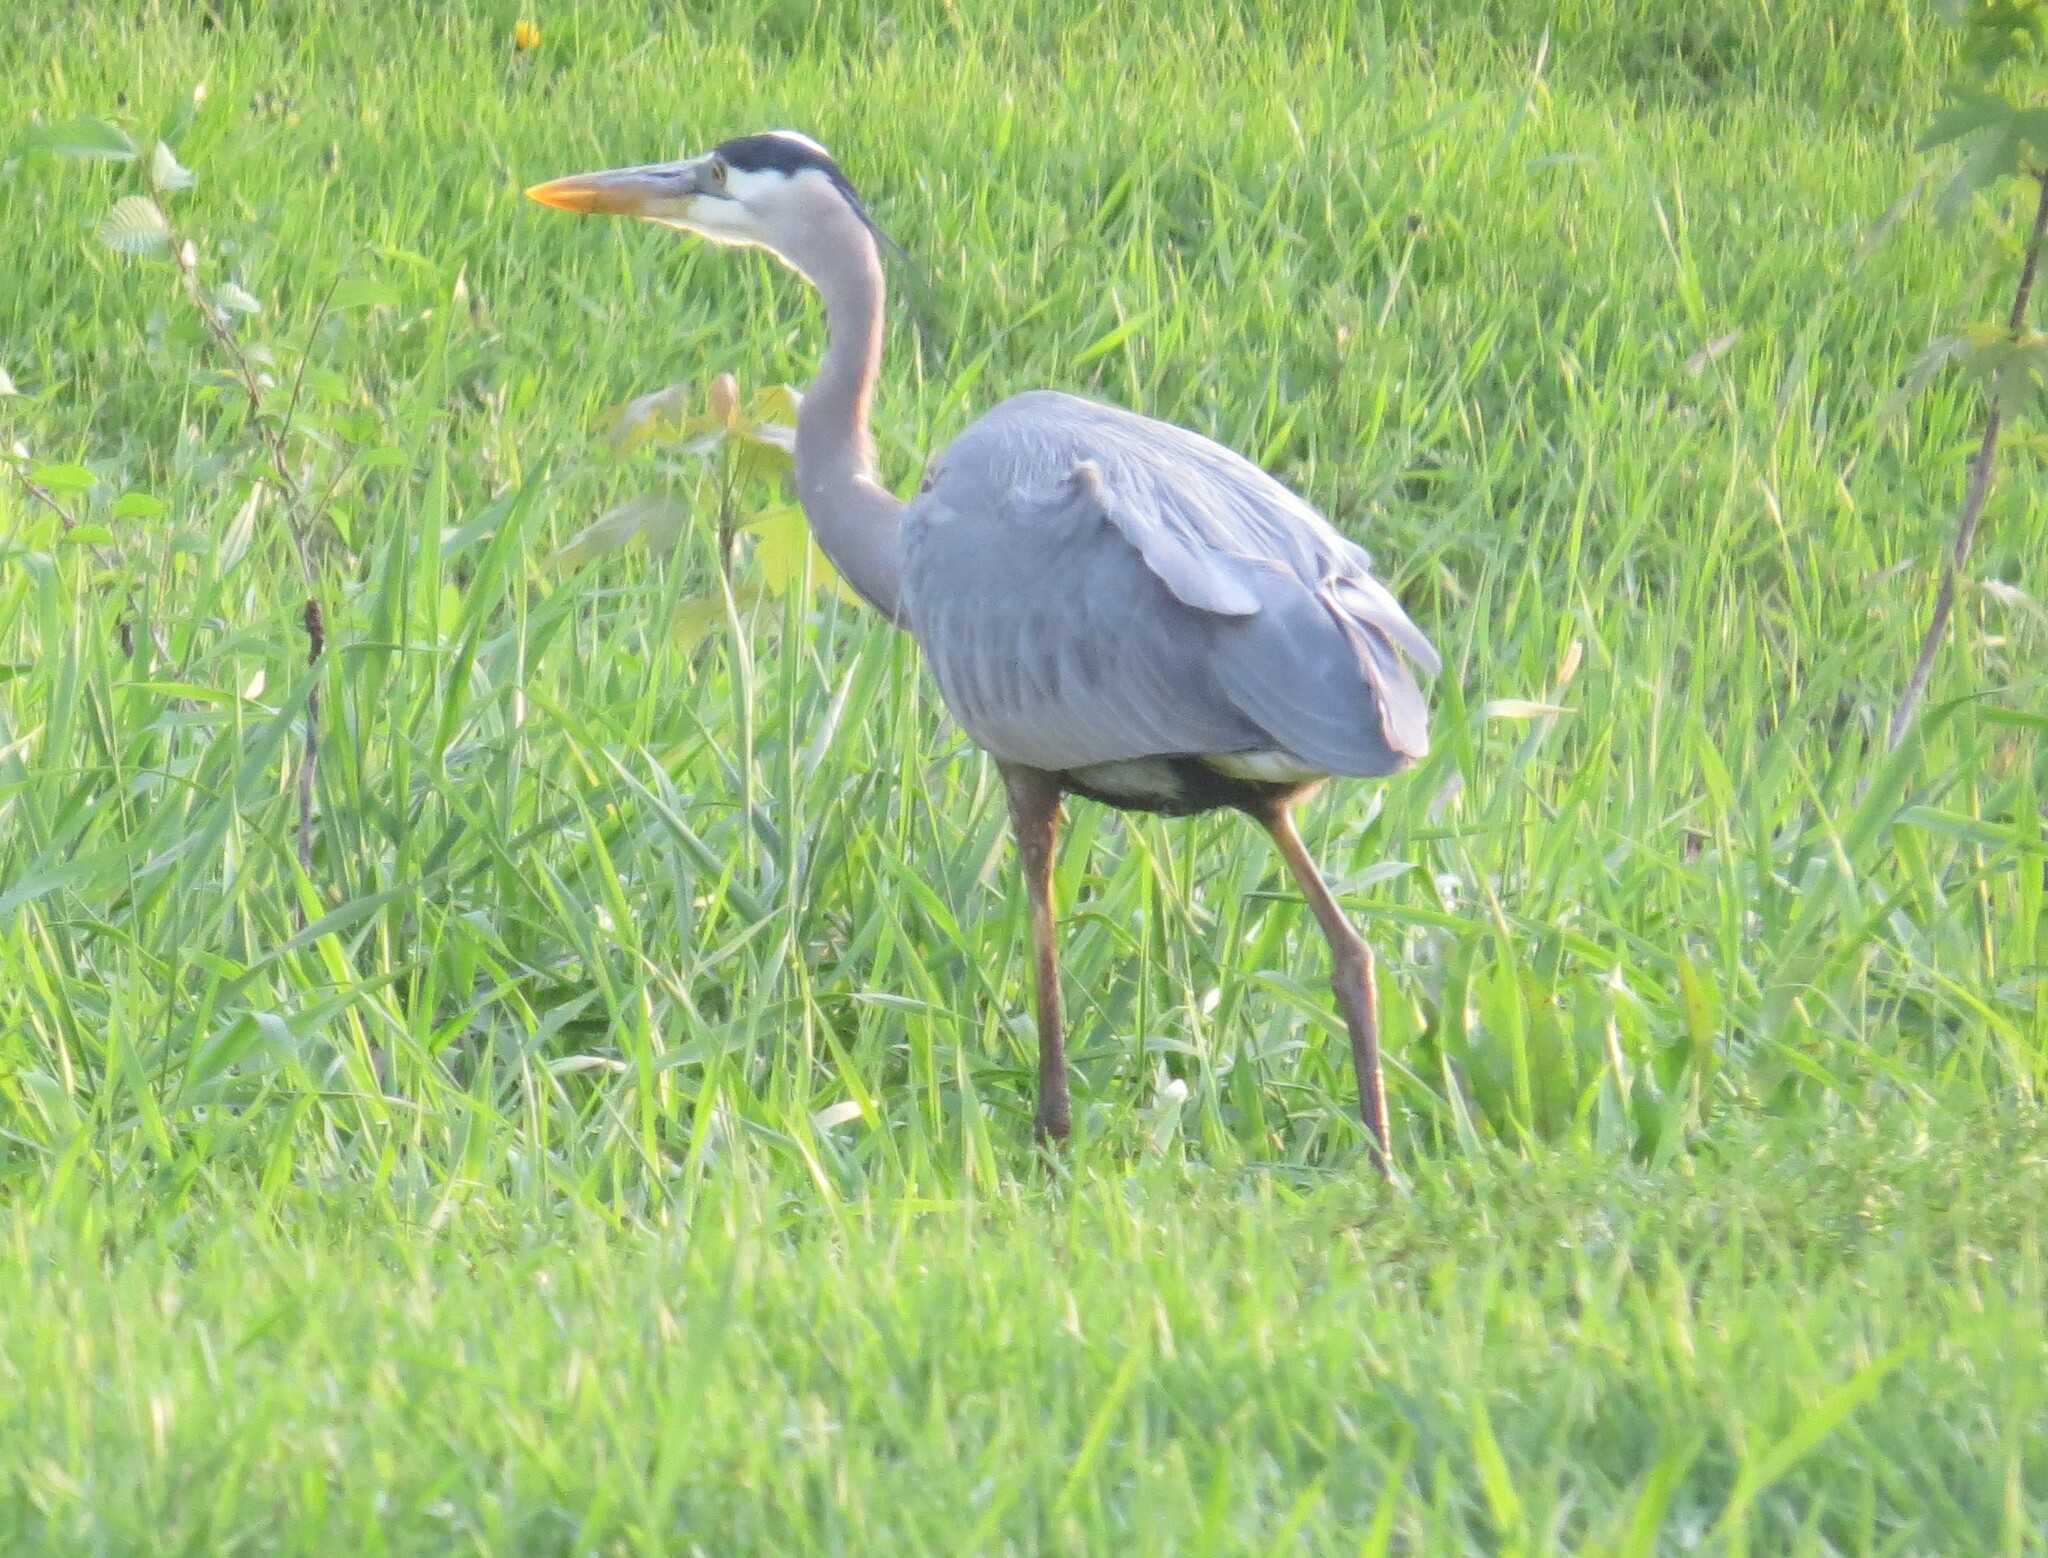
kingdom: Animalia
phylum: Chordata
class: Aves
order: Pelecaniformes
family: Ardeidae
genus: Ardea
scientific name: Ardea herodias
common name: Great blue heron
